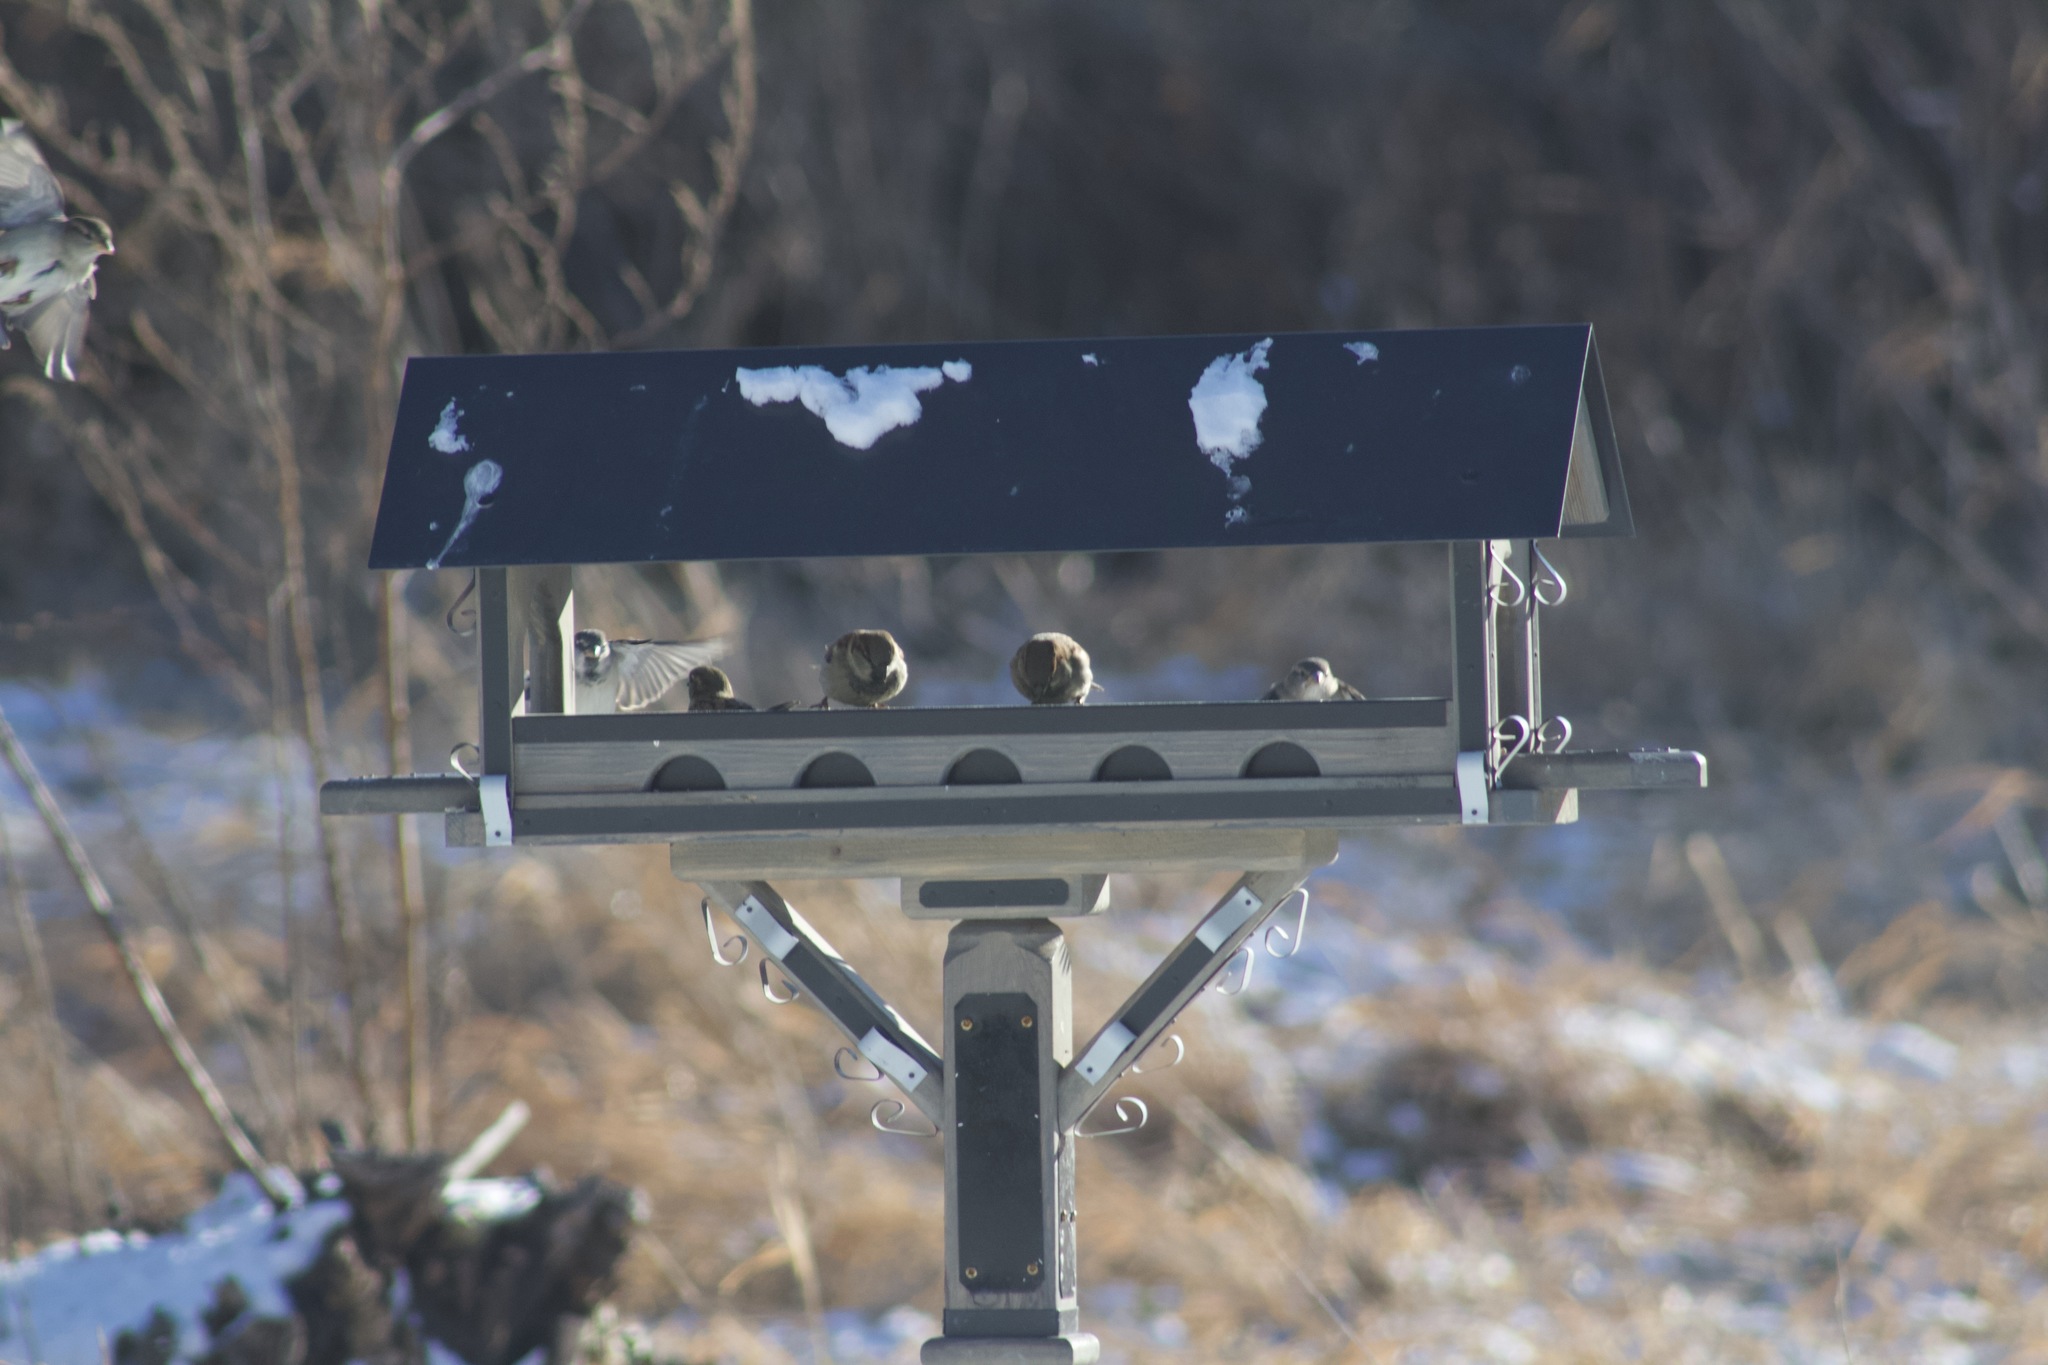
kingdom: Animalia
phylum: Chordata
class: Aves
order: Passeriformes
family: Passeridae
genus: Passer
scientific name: Passer domesticus
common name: House sparrow
